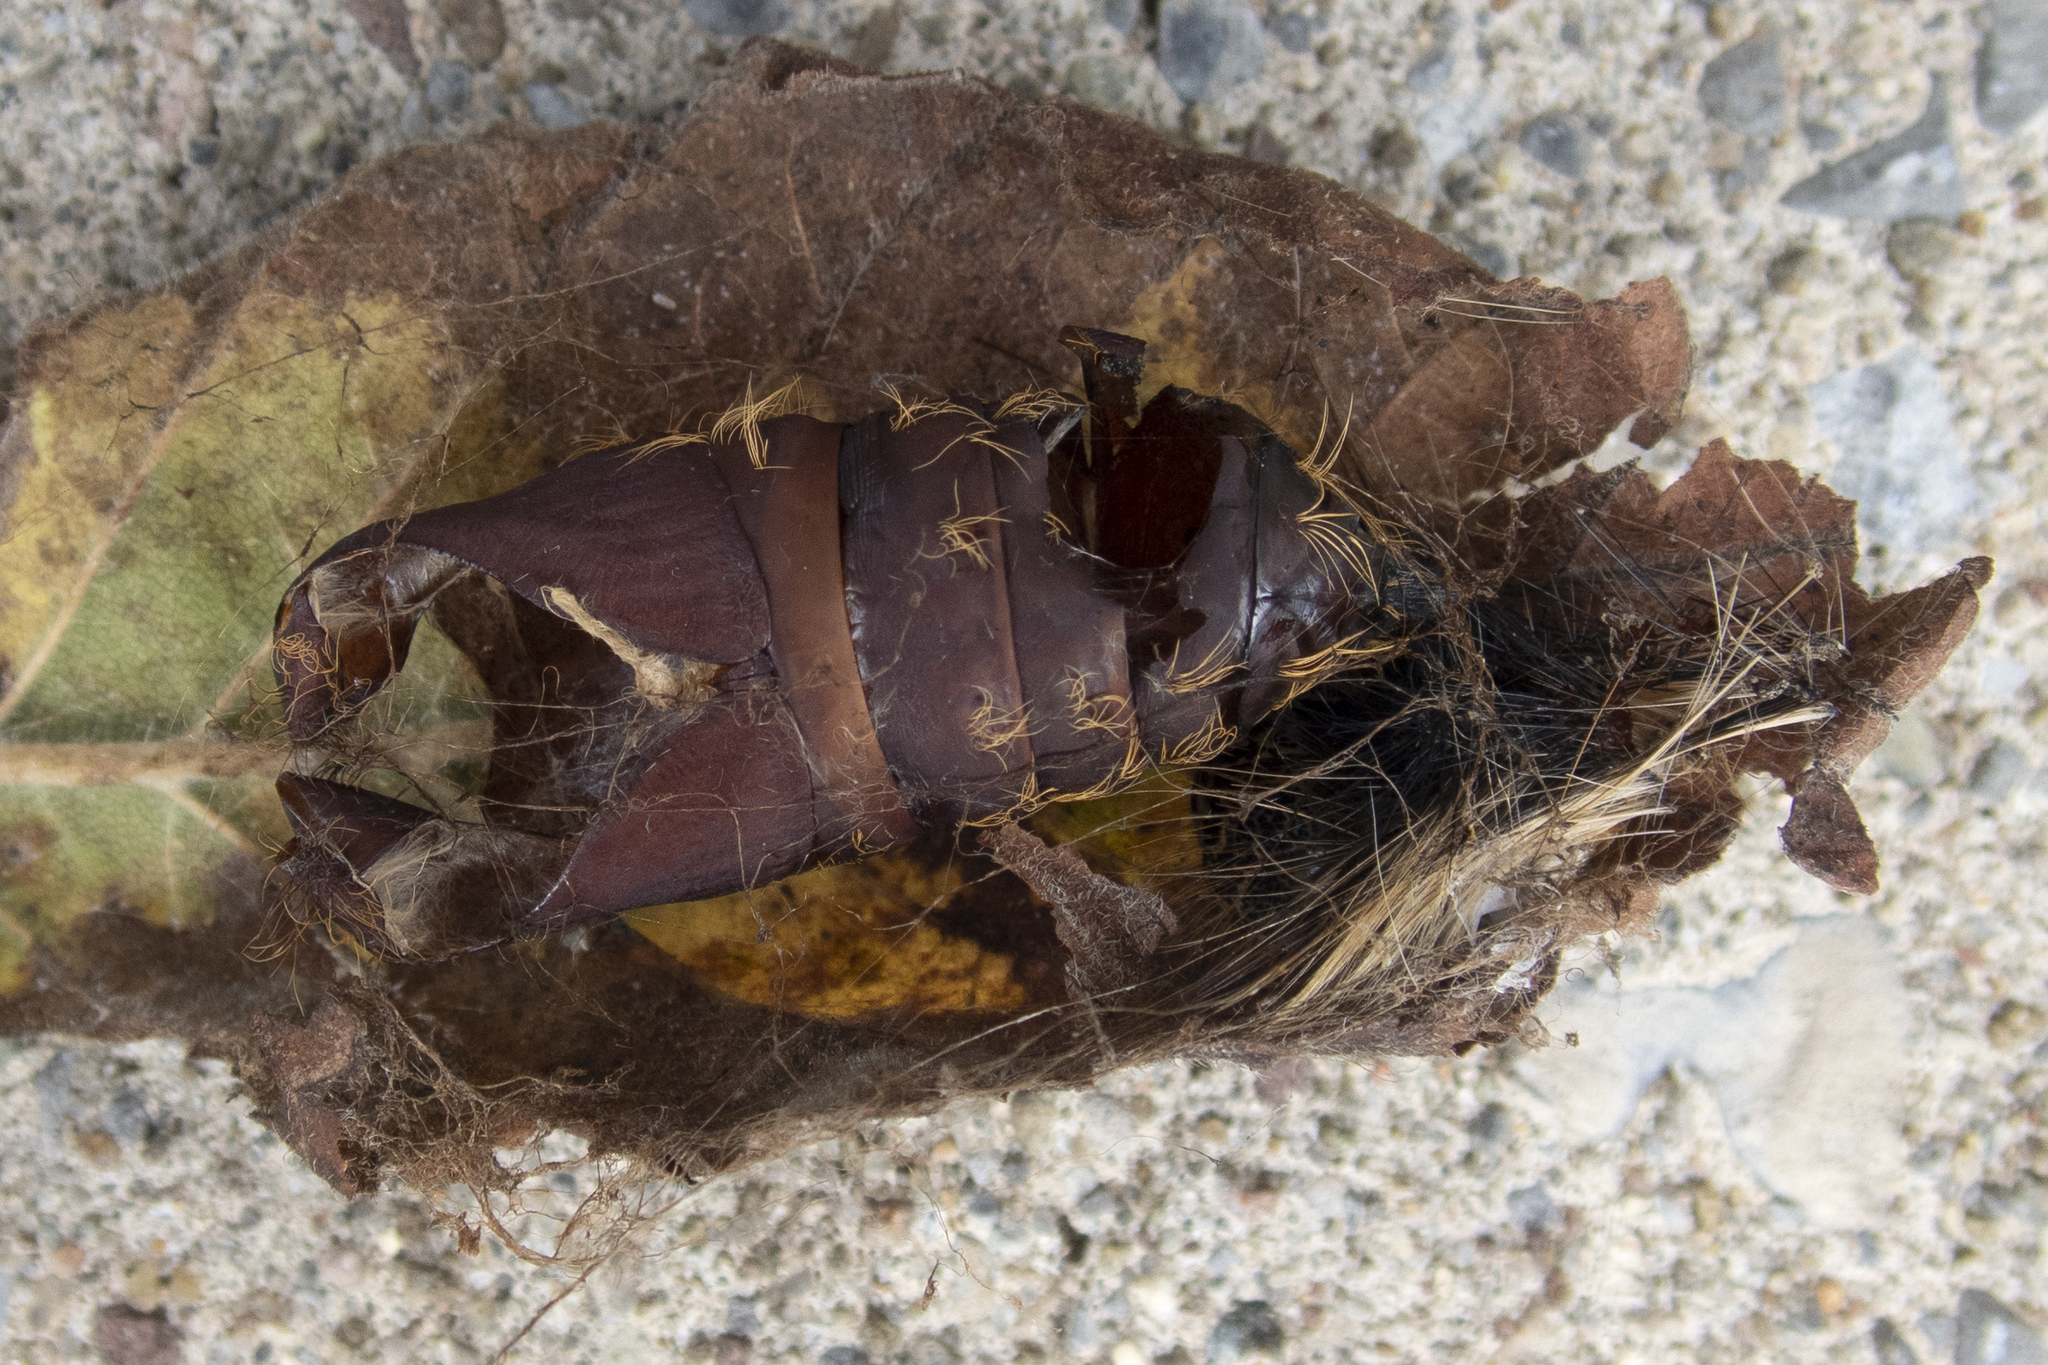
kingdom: Animalia
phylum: Arthropoda
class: Insecta
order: Lepidoptera
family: Erebidae
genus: Lymantria
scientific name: Lymantria dispar
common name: Gypsy moth
